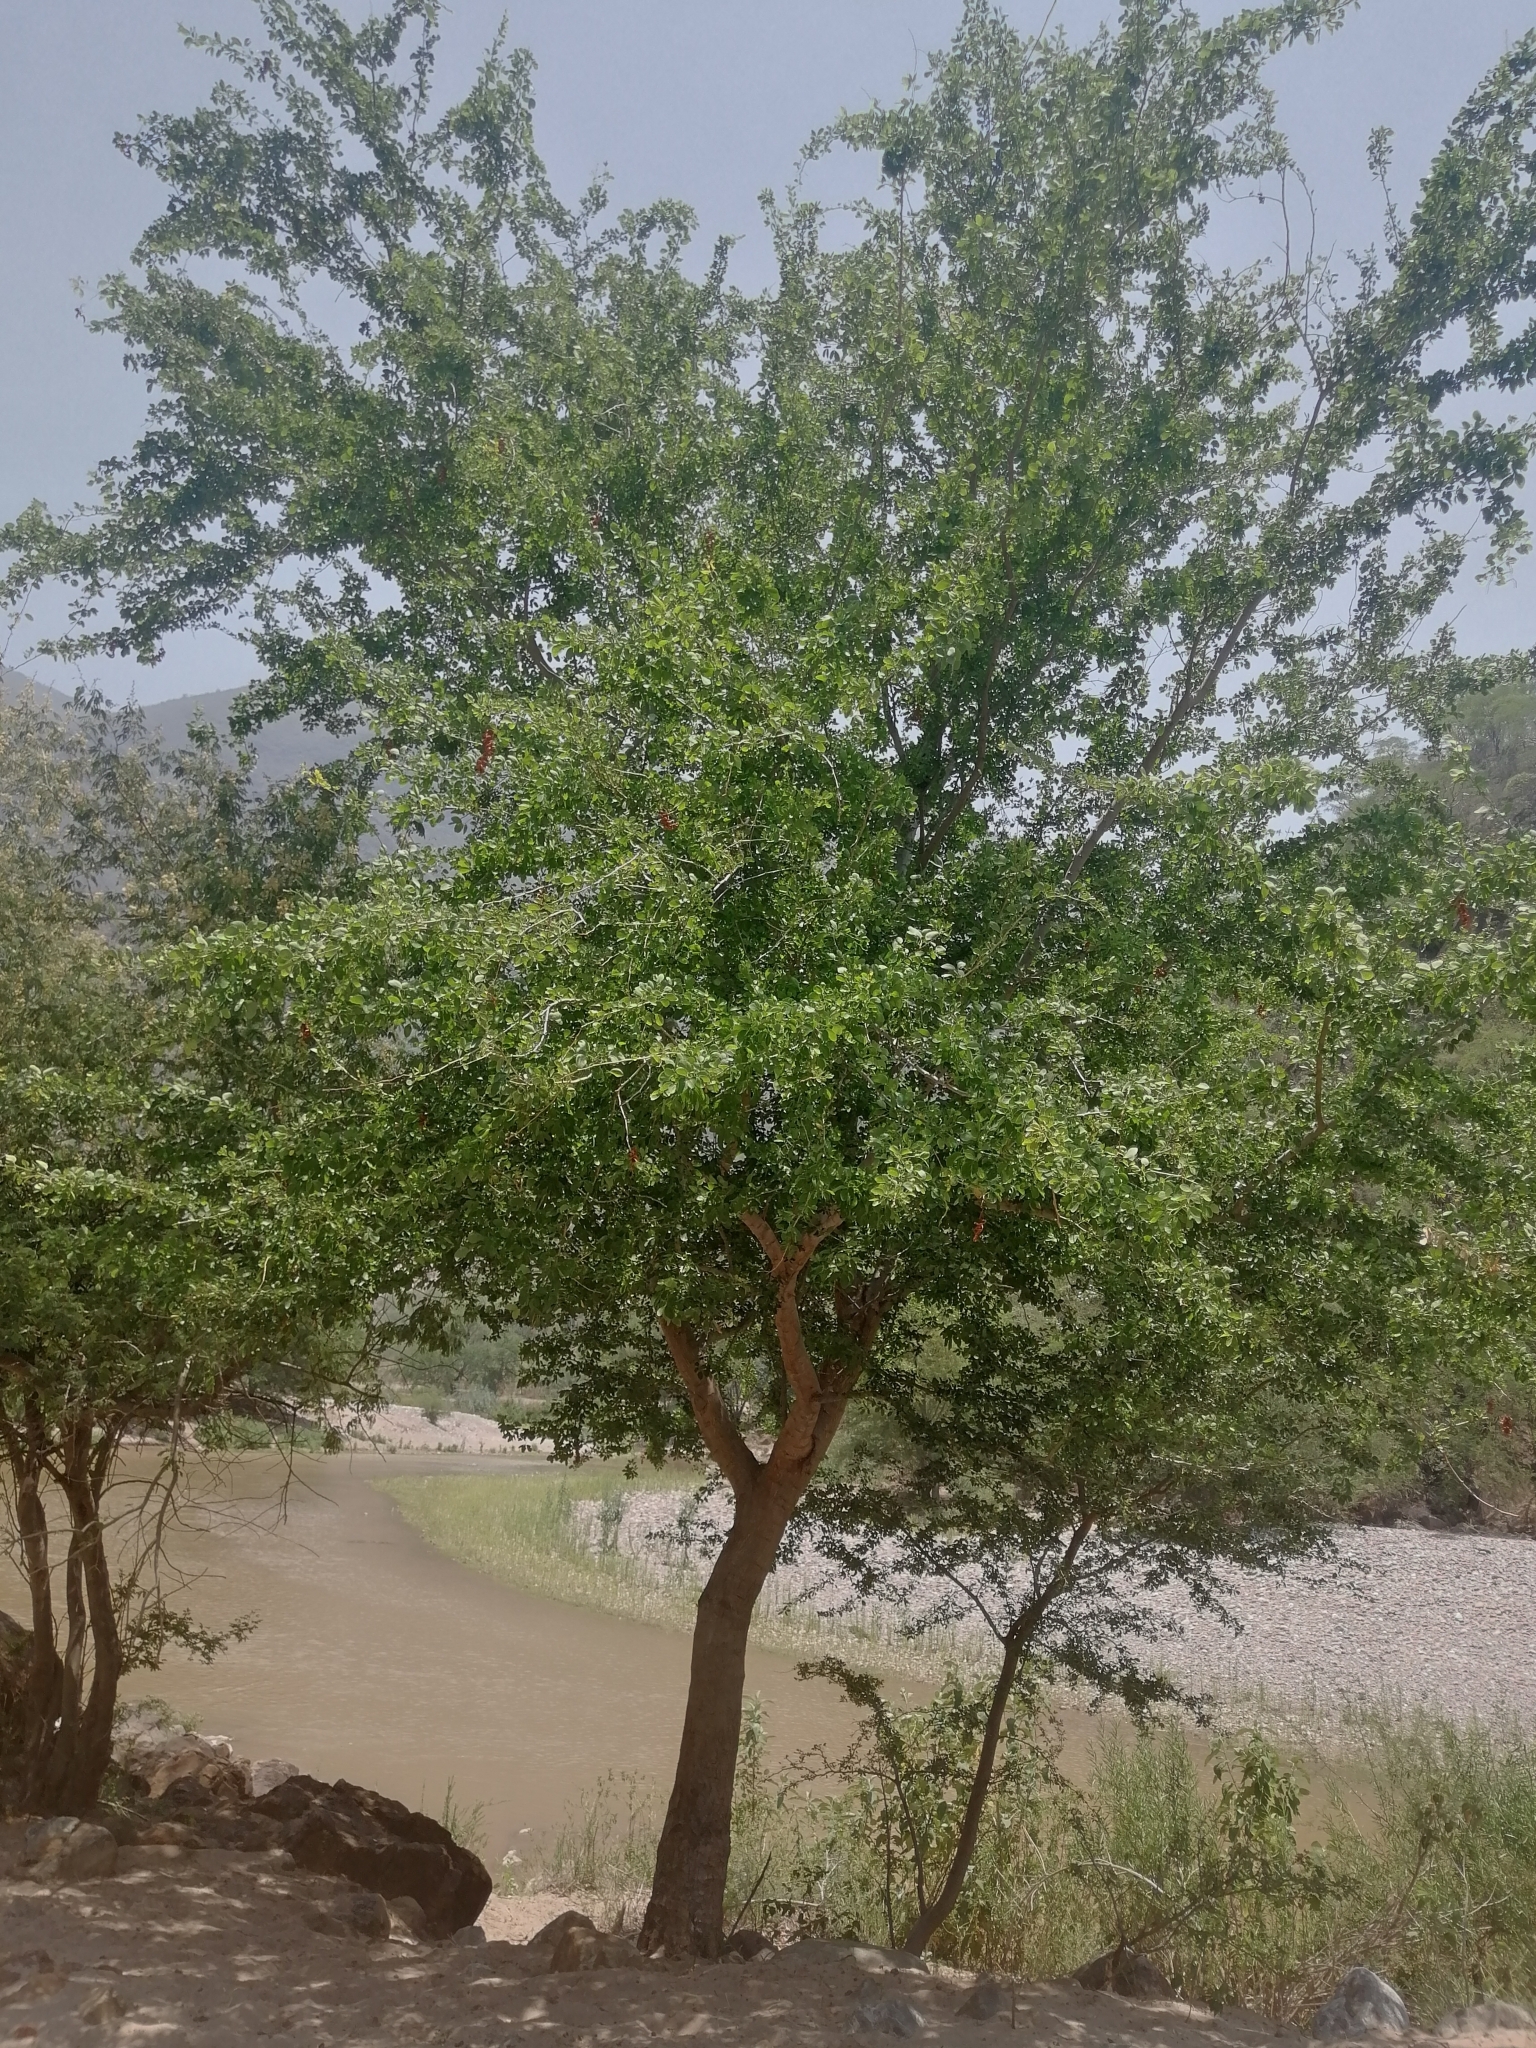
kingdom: Plantae
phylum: Tracheophyta
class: Magnoliopsida
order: Fabales
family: Fabaceae
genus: Pithecellobium
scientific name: Pithecellobium dulce
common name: Monkeypod
